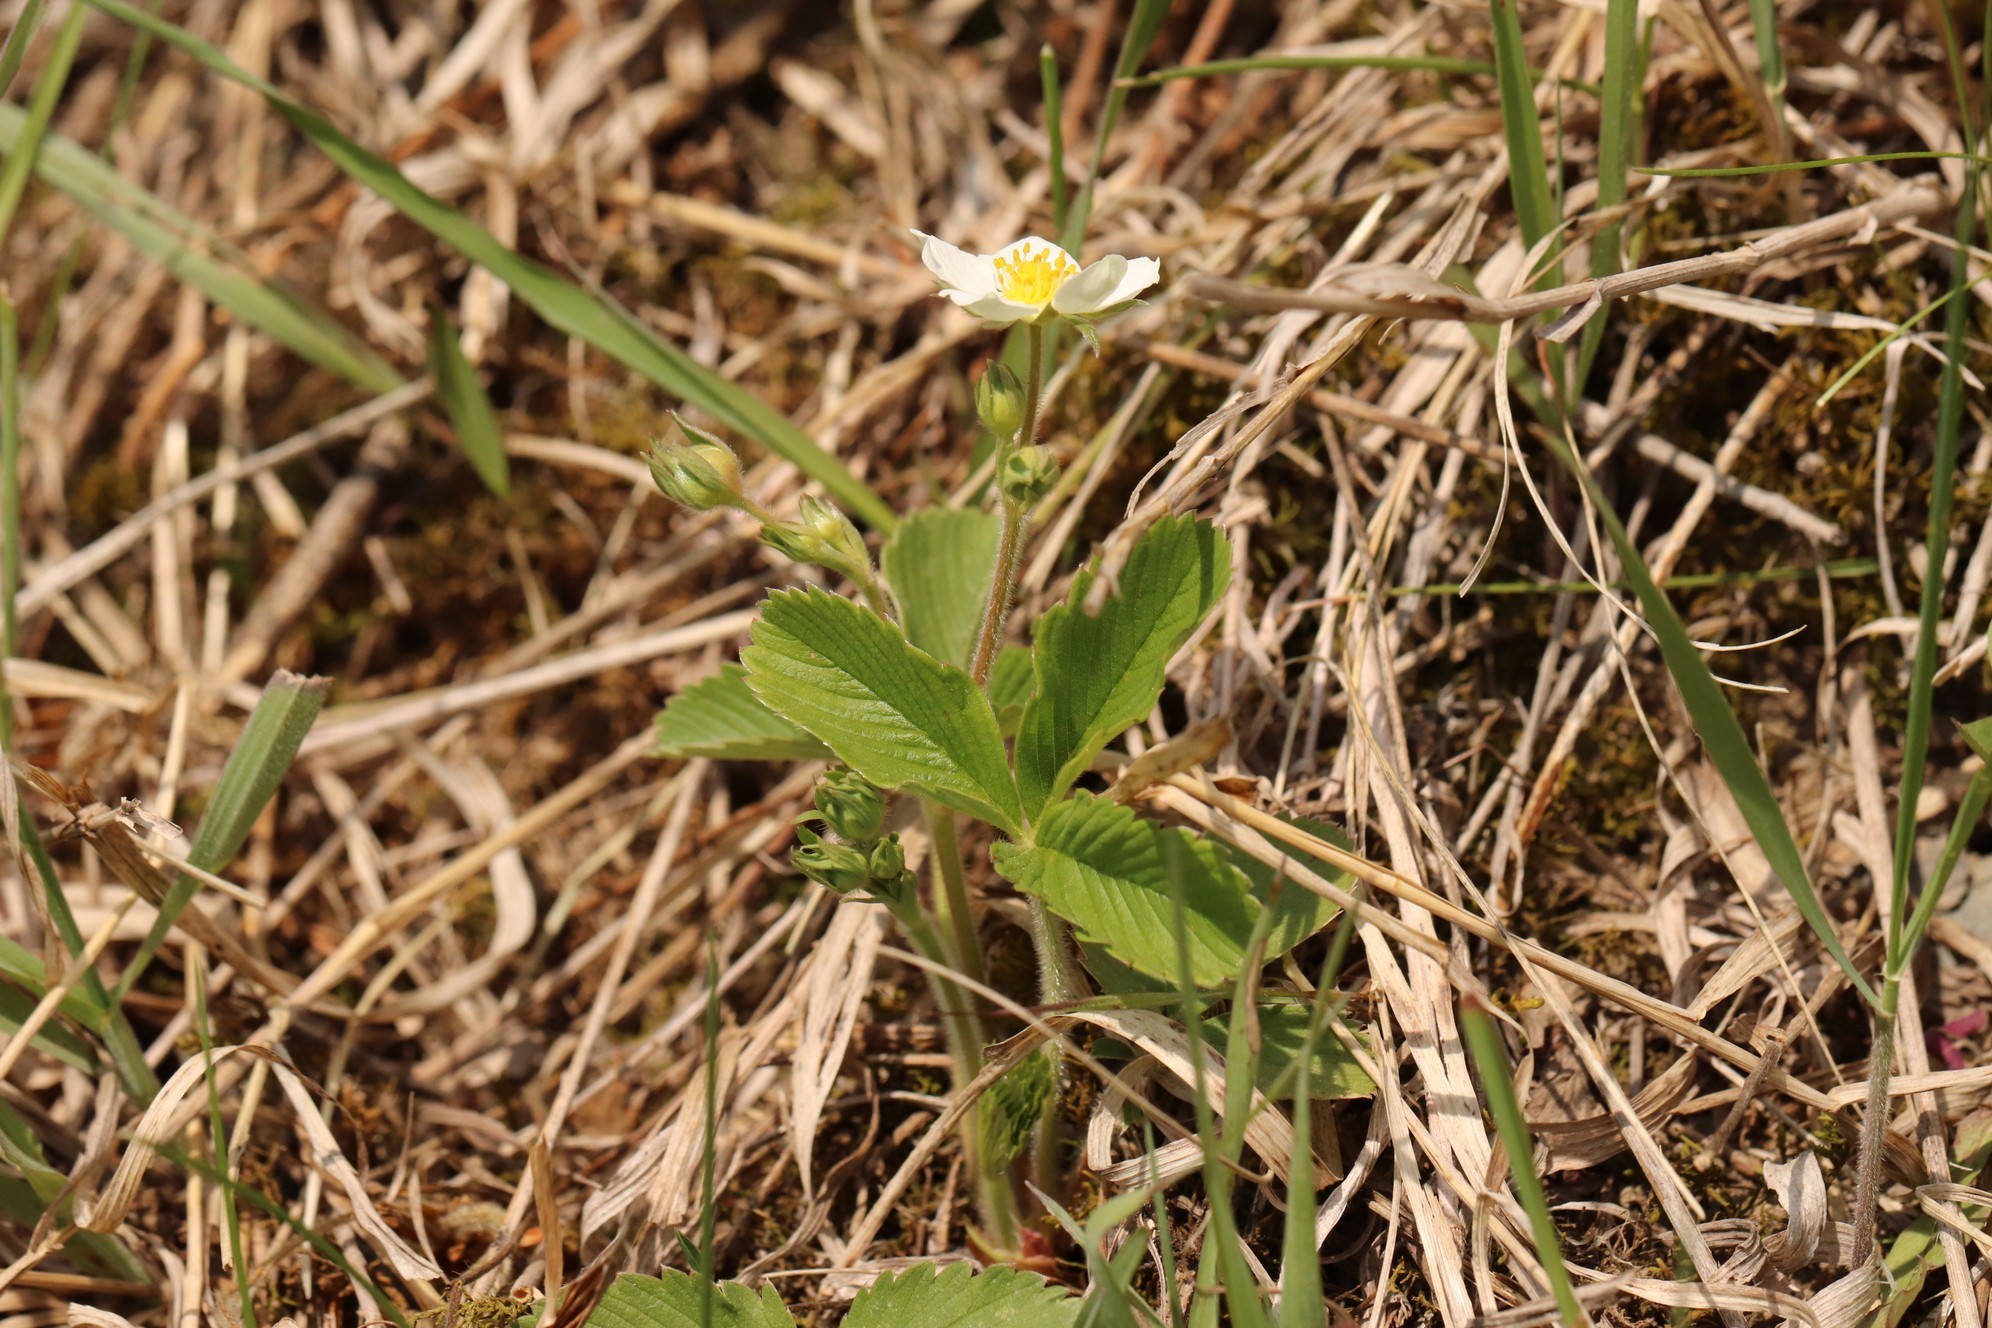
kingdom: Plantae
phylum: Tracheophyta
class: Magnoliopsida
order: Rosales
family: Rosaceae
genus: Fragaria
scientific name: Fragaria viridis
